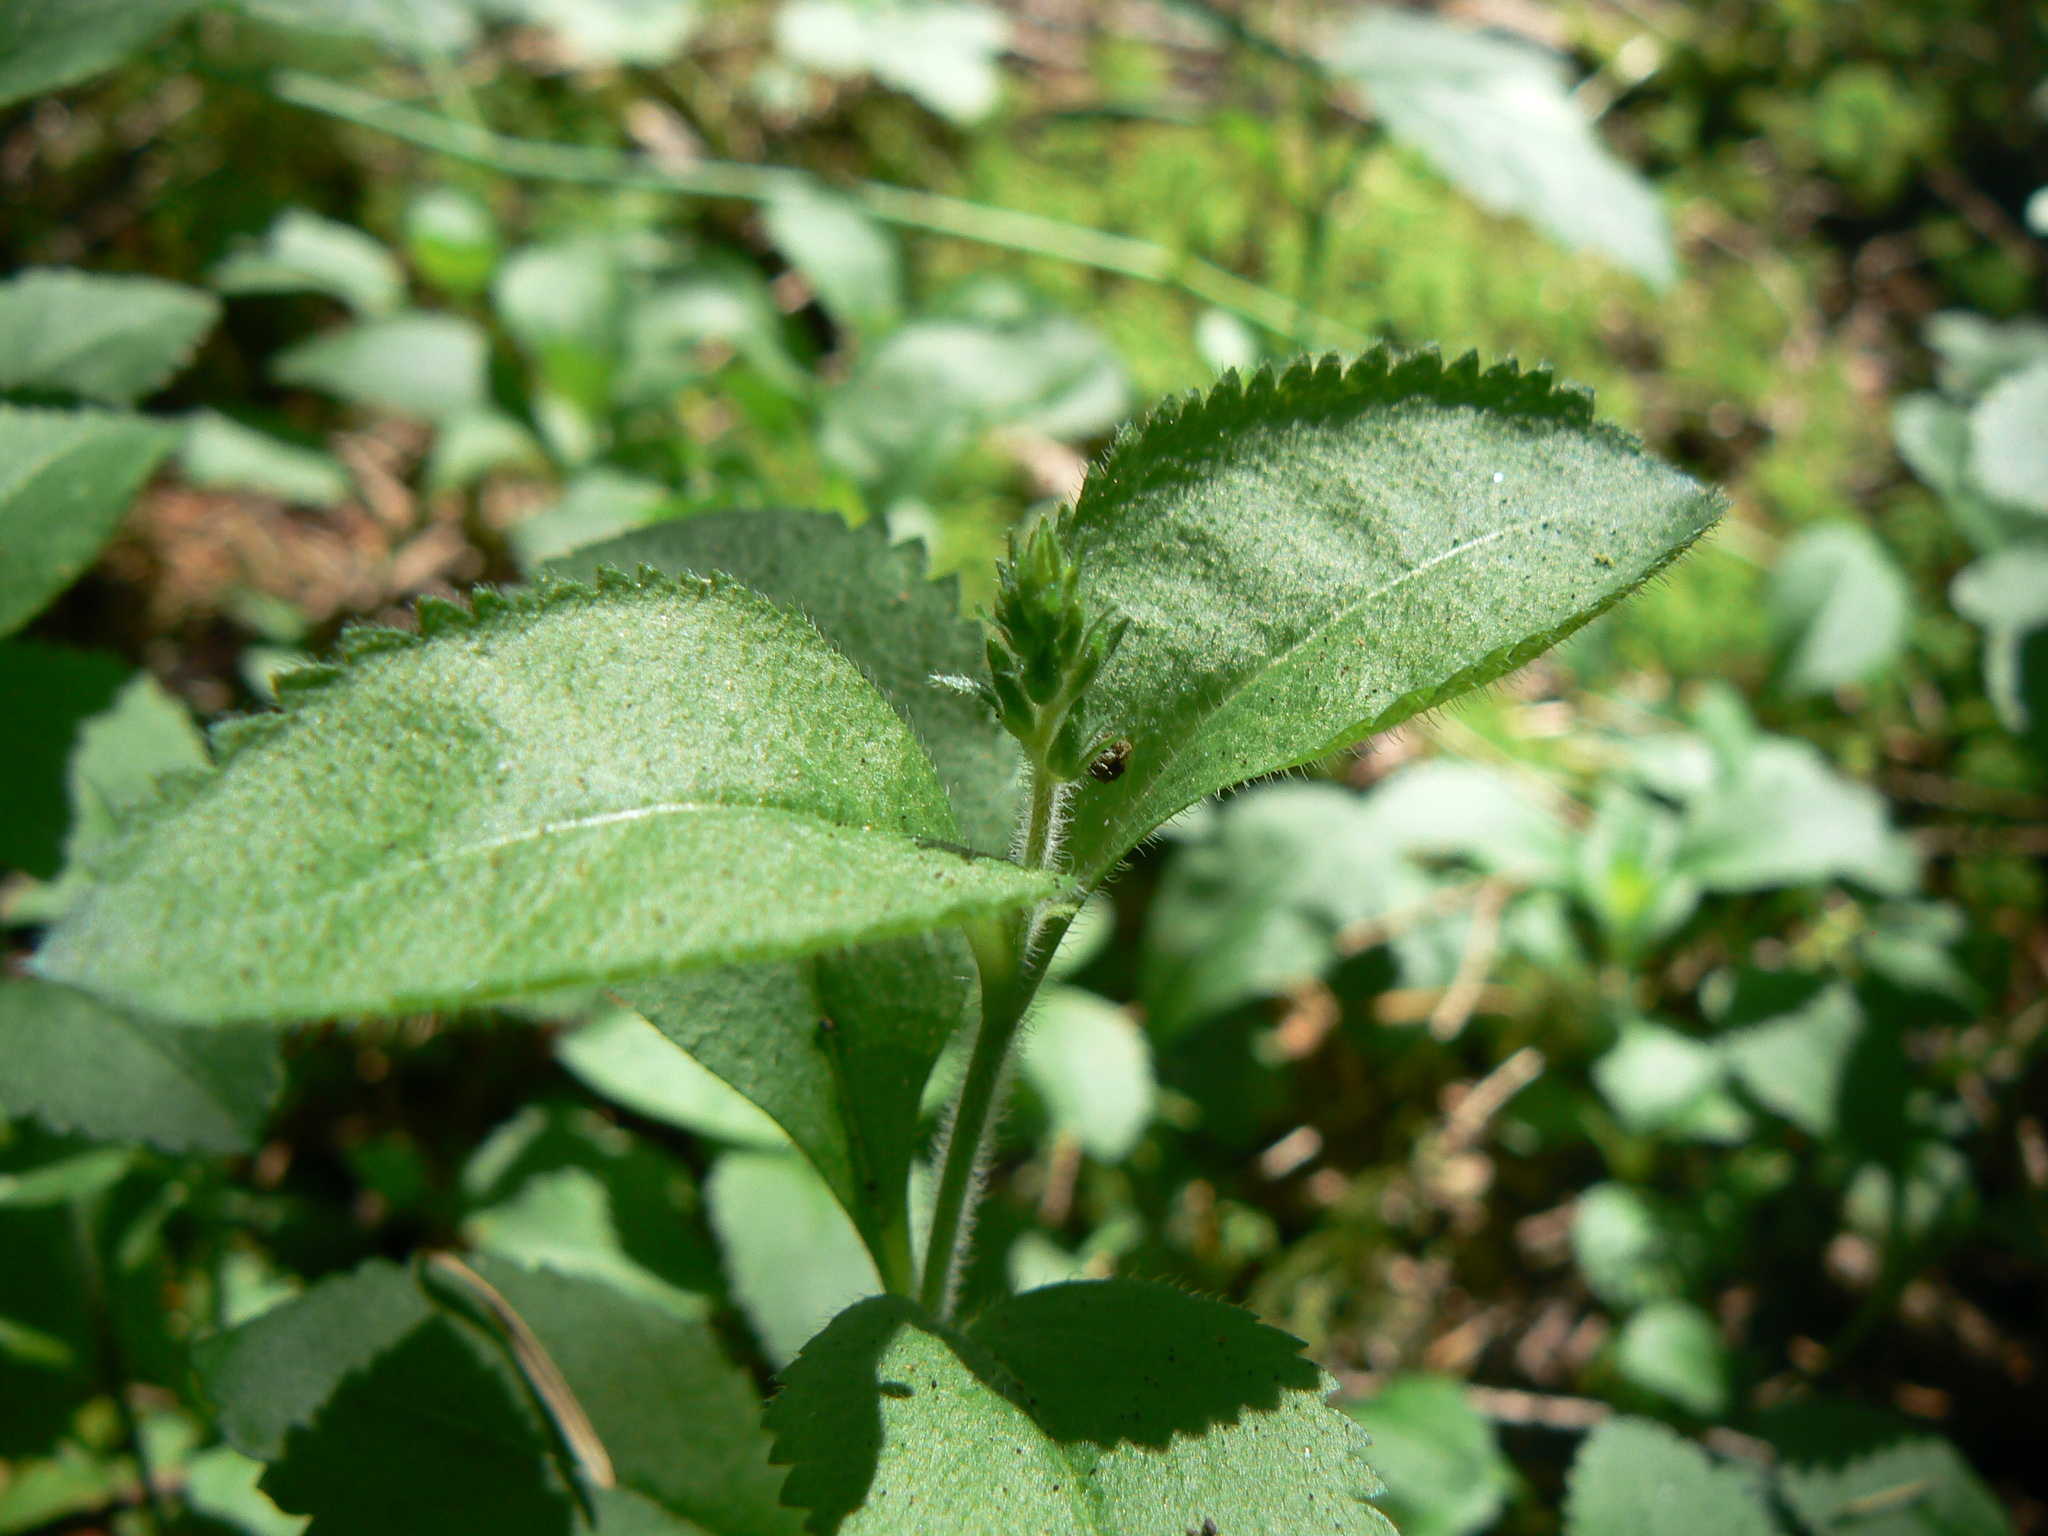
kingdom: Plantae
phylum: Tracheophyta
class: Magnoliopsida
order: Lamiales
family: Plantaginaceae
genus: Veronica
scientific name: Veronica officinalis
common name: Common speedwell
